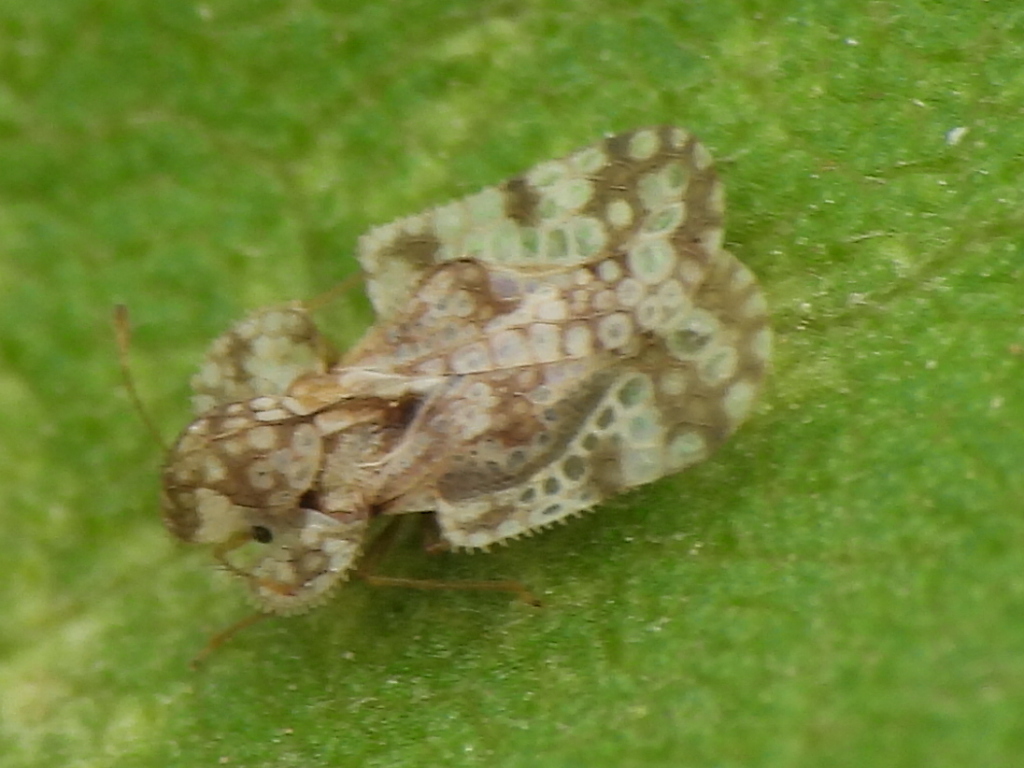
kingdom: Animalia
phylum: Arthropoda
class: Insecta
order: Hemiptera
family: Tingidae
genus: Corythucha
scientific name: Corythucha marmorata
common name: Chrysanthemum lace bug
